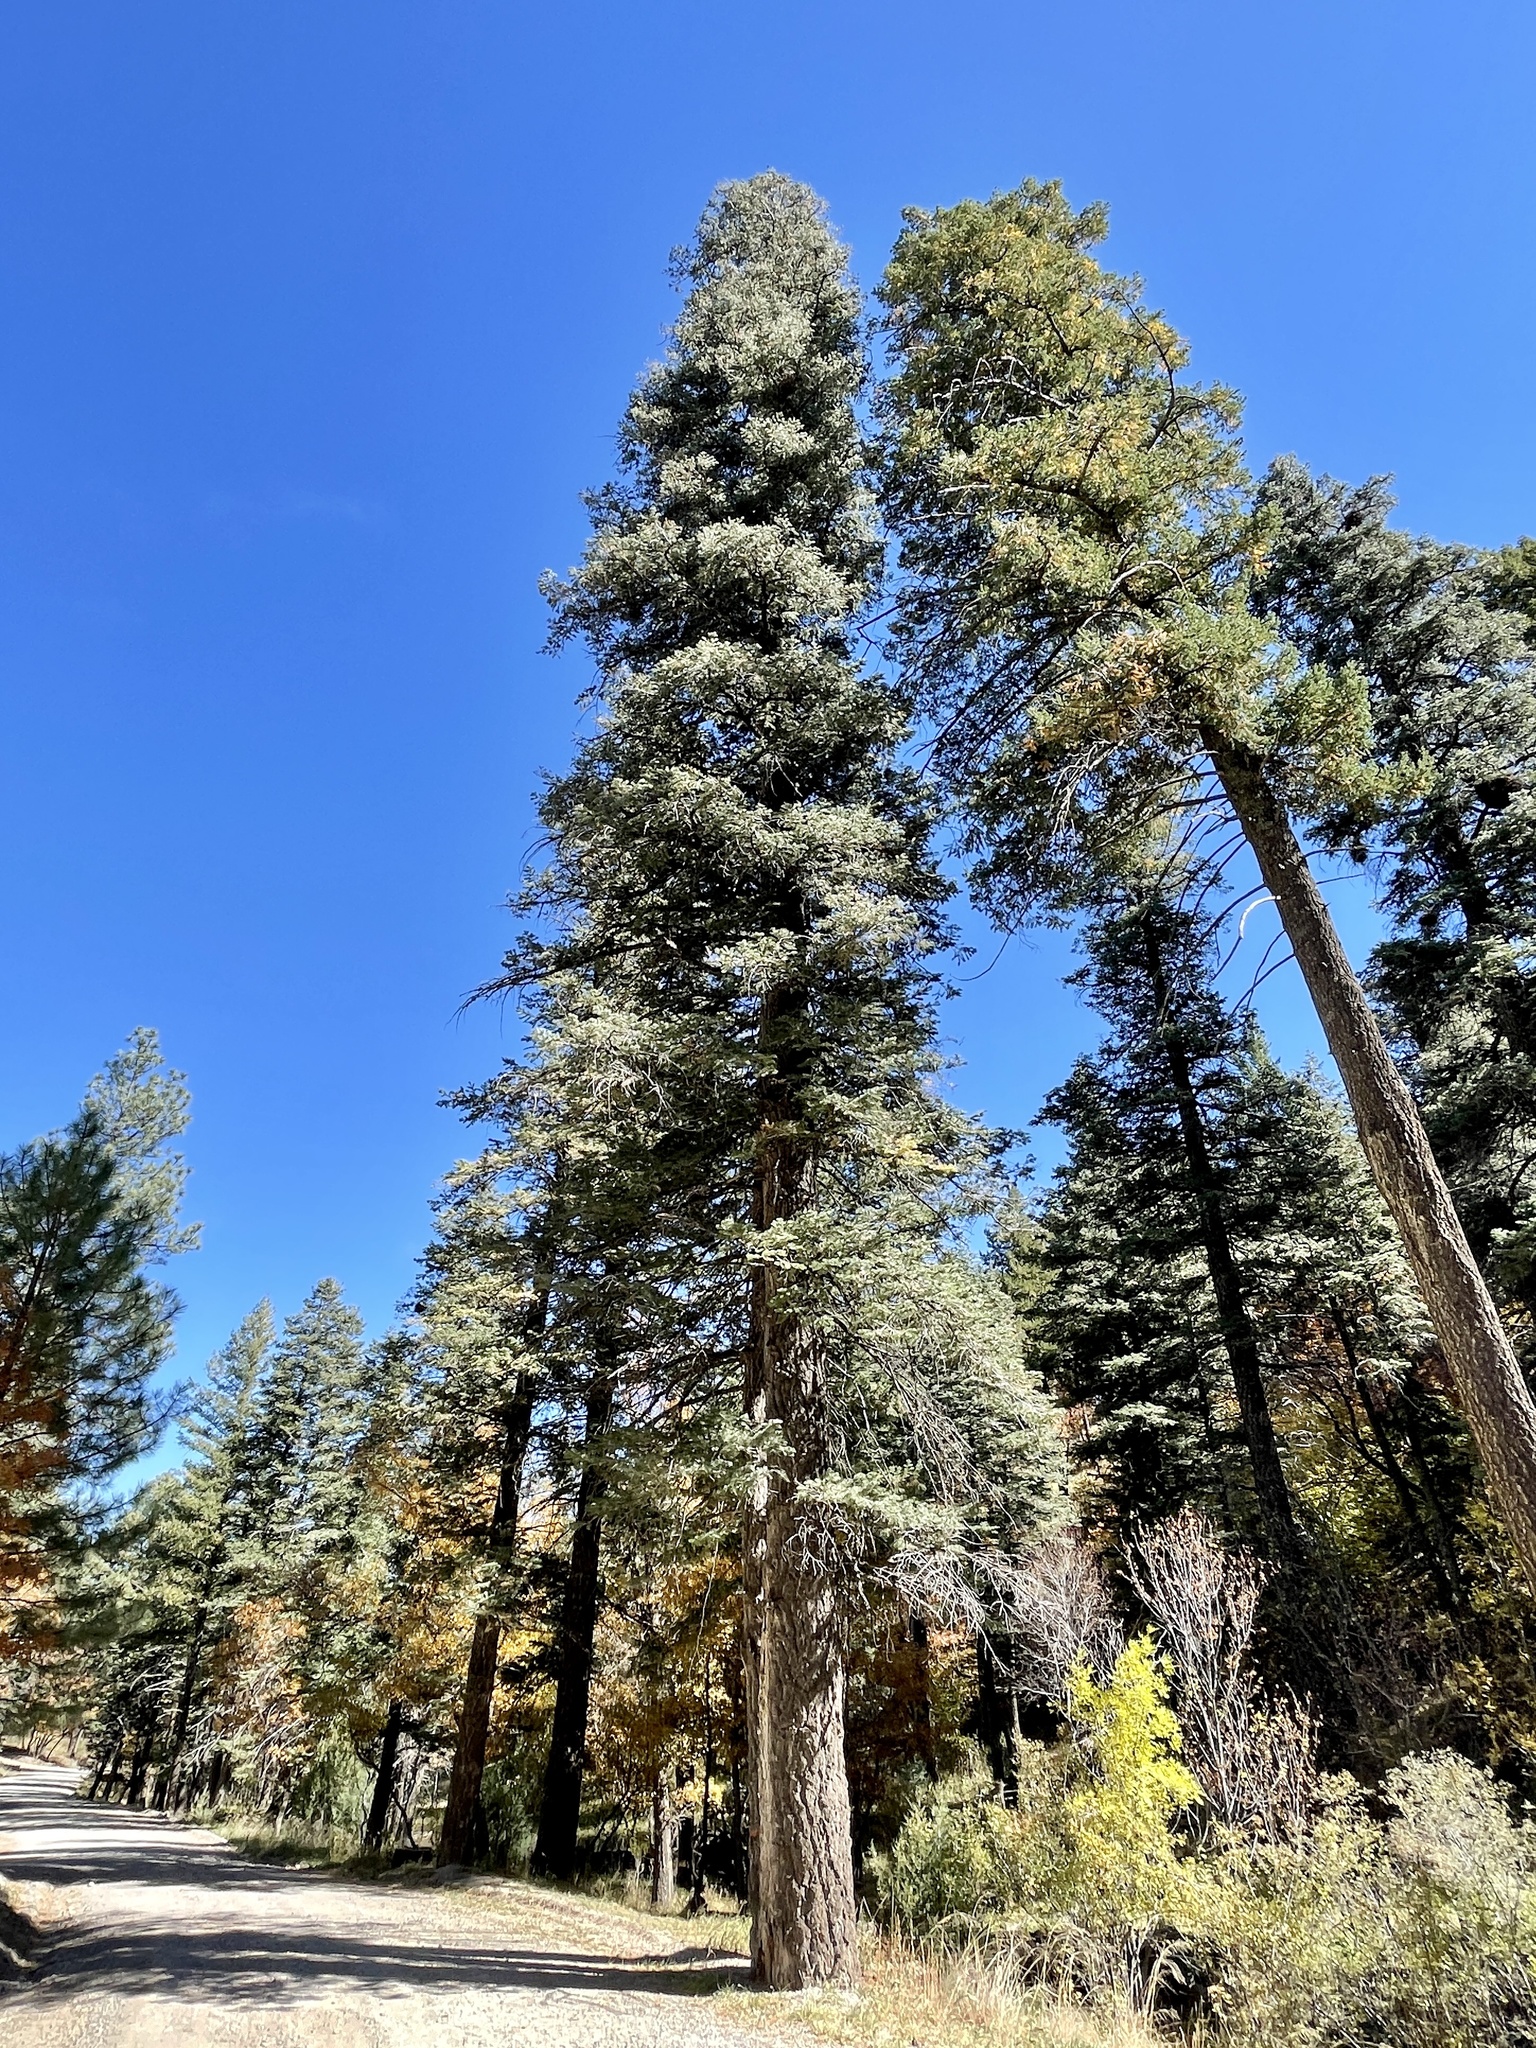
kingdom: Plantae
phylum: Tracheophyta
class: Pinopsida
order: Pinales
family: Pinaceae
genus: Abies
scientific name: Abies concolor
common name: Colorado fir
